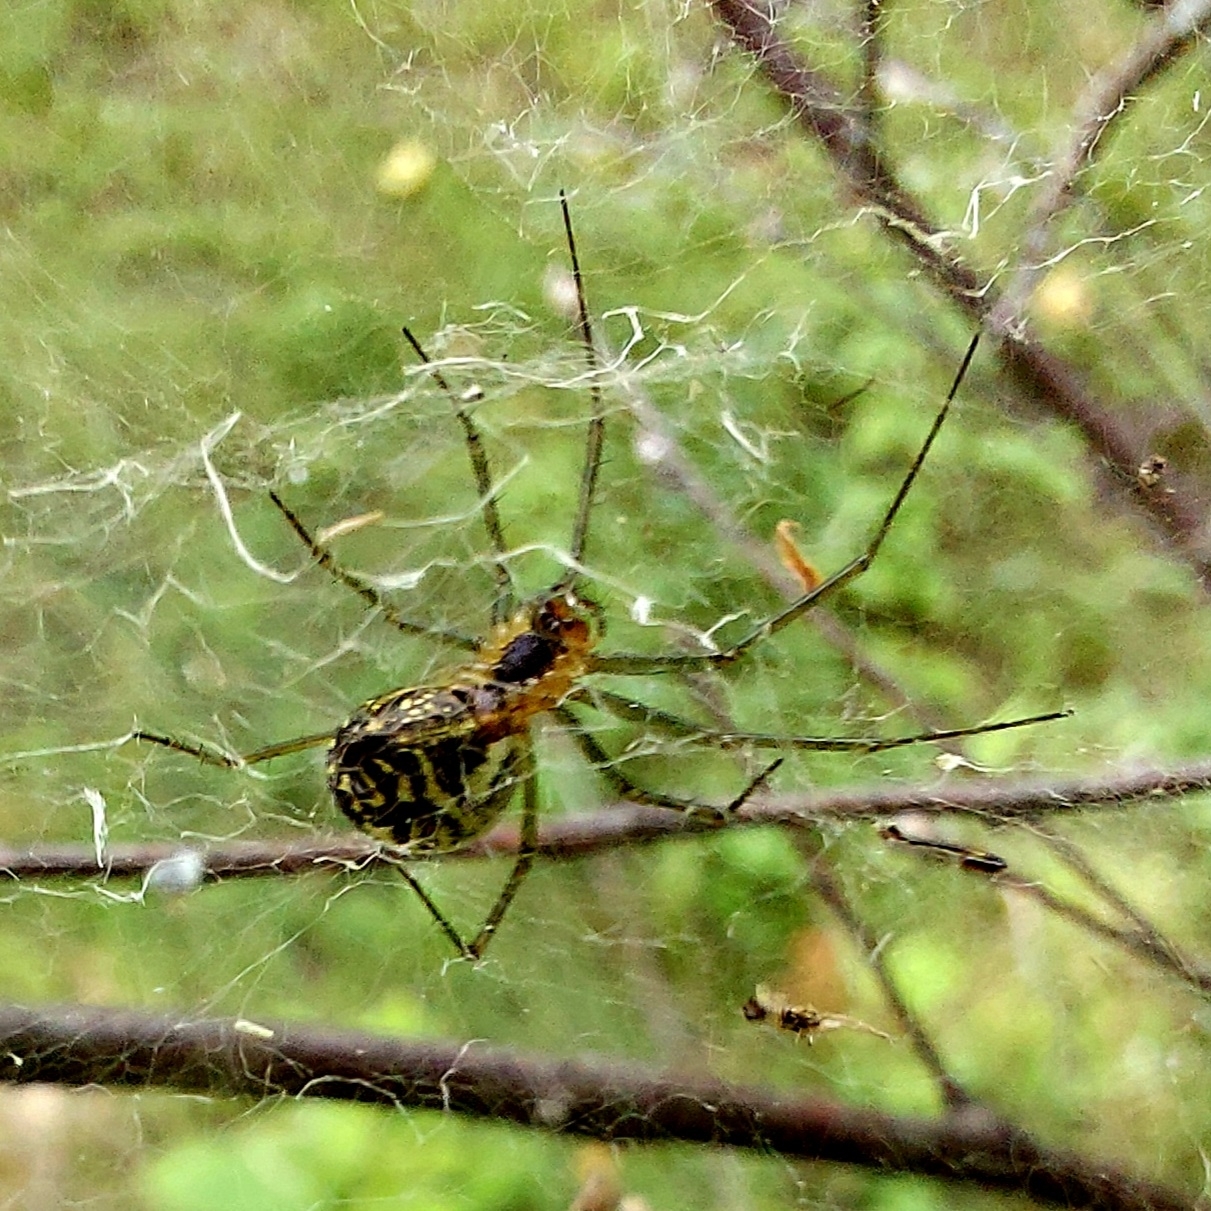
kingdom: Animalia
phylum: Arthropoda
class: Arachnida
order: Araneae
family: Linyphiidae
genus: Neriene
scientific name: Neriene radiata
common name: Filmy dome spider
